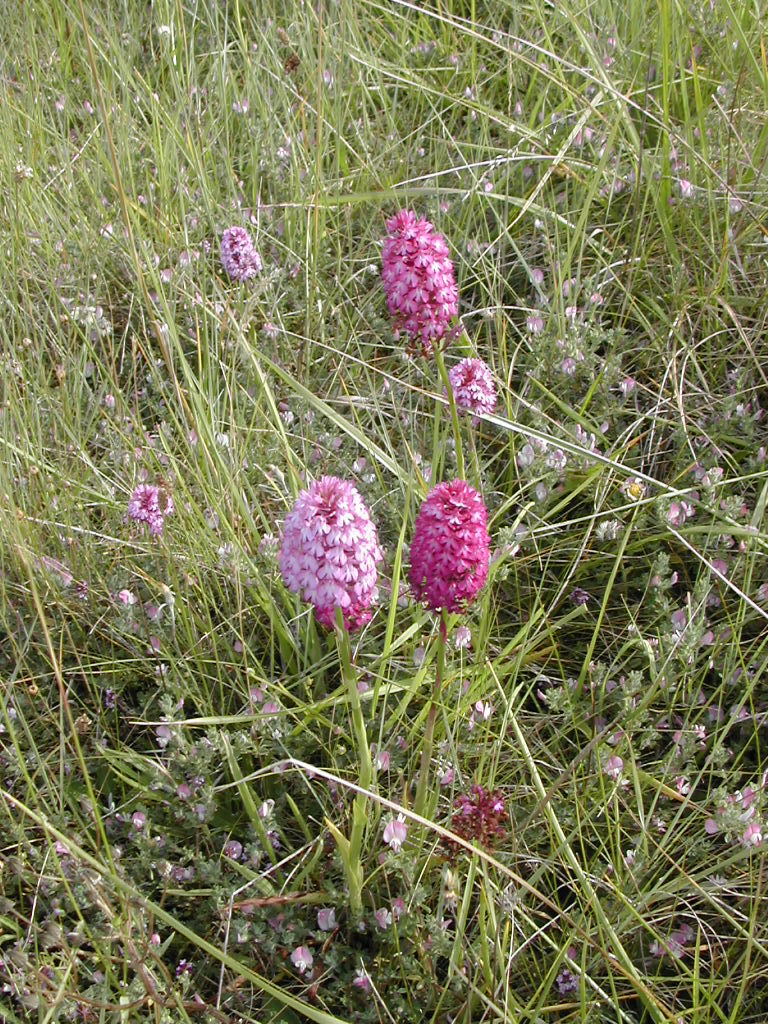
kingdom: Plantae
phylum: Tracheophyta
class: Liliopsida
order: Asparagales
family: Orchidaceae
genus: Anacamptis
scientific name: Anacamptis pyramidalis
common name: Pyramidal orchid
